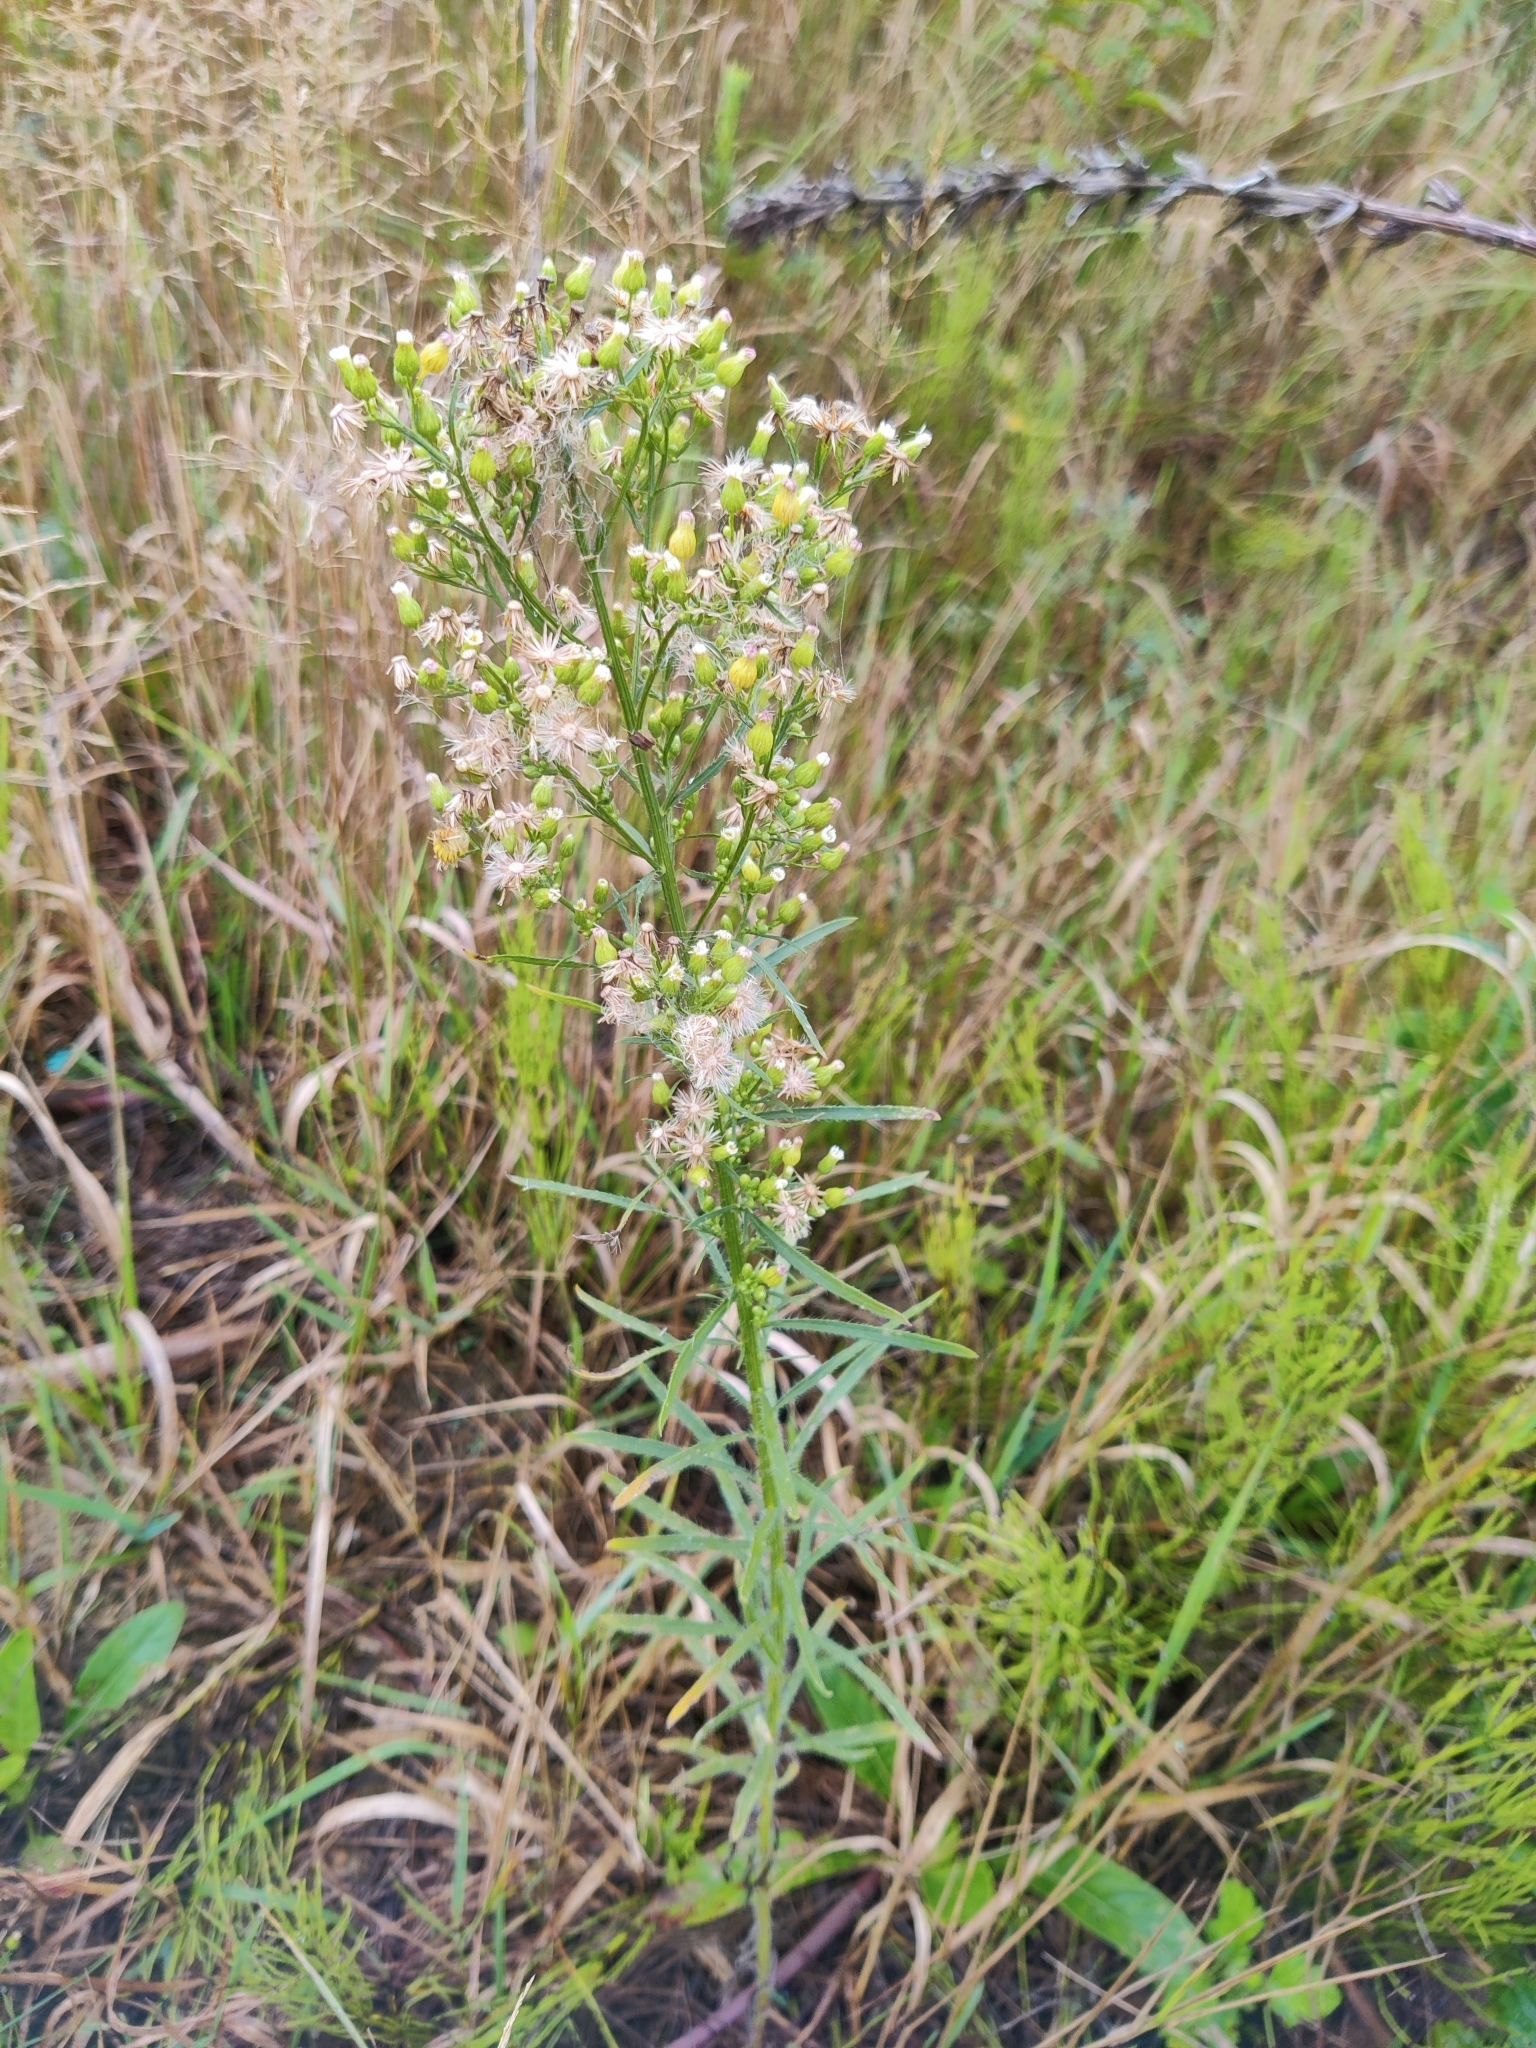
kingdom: Plantae
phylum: Tracheophyta
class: Magnoliopsida
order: Asterales
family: Asteraceae
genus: Erigeron
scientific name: Erigeron canadensis
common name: Canadian fleabane
